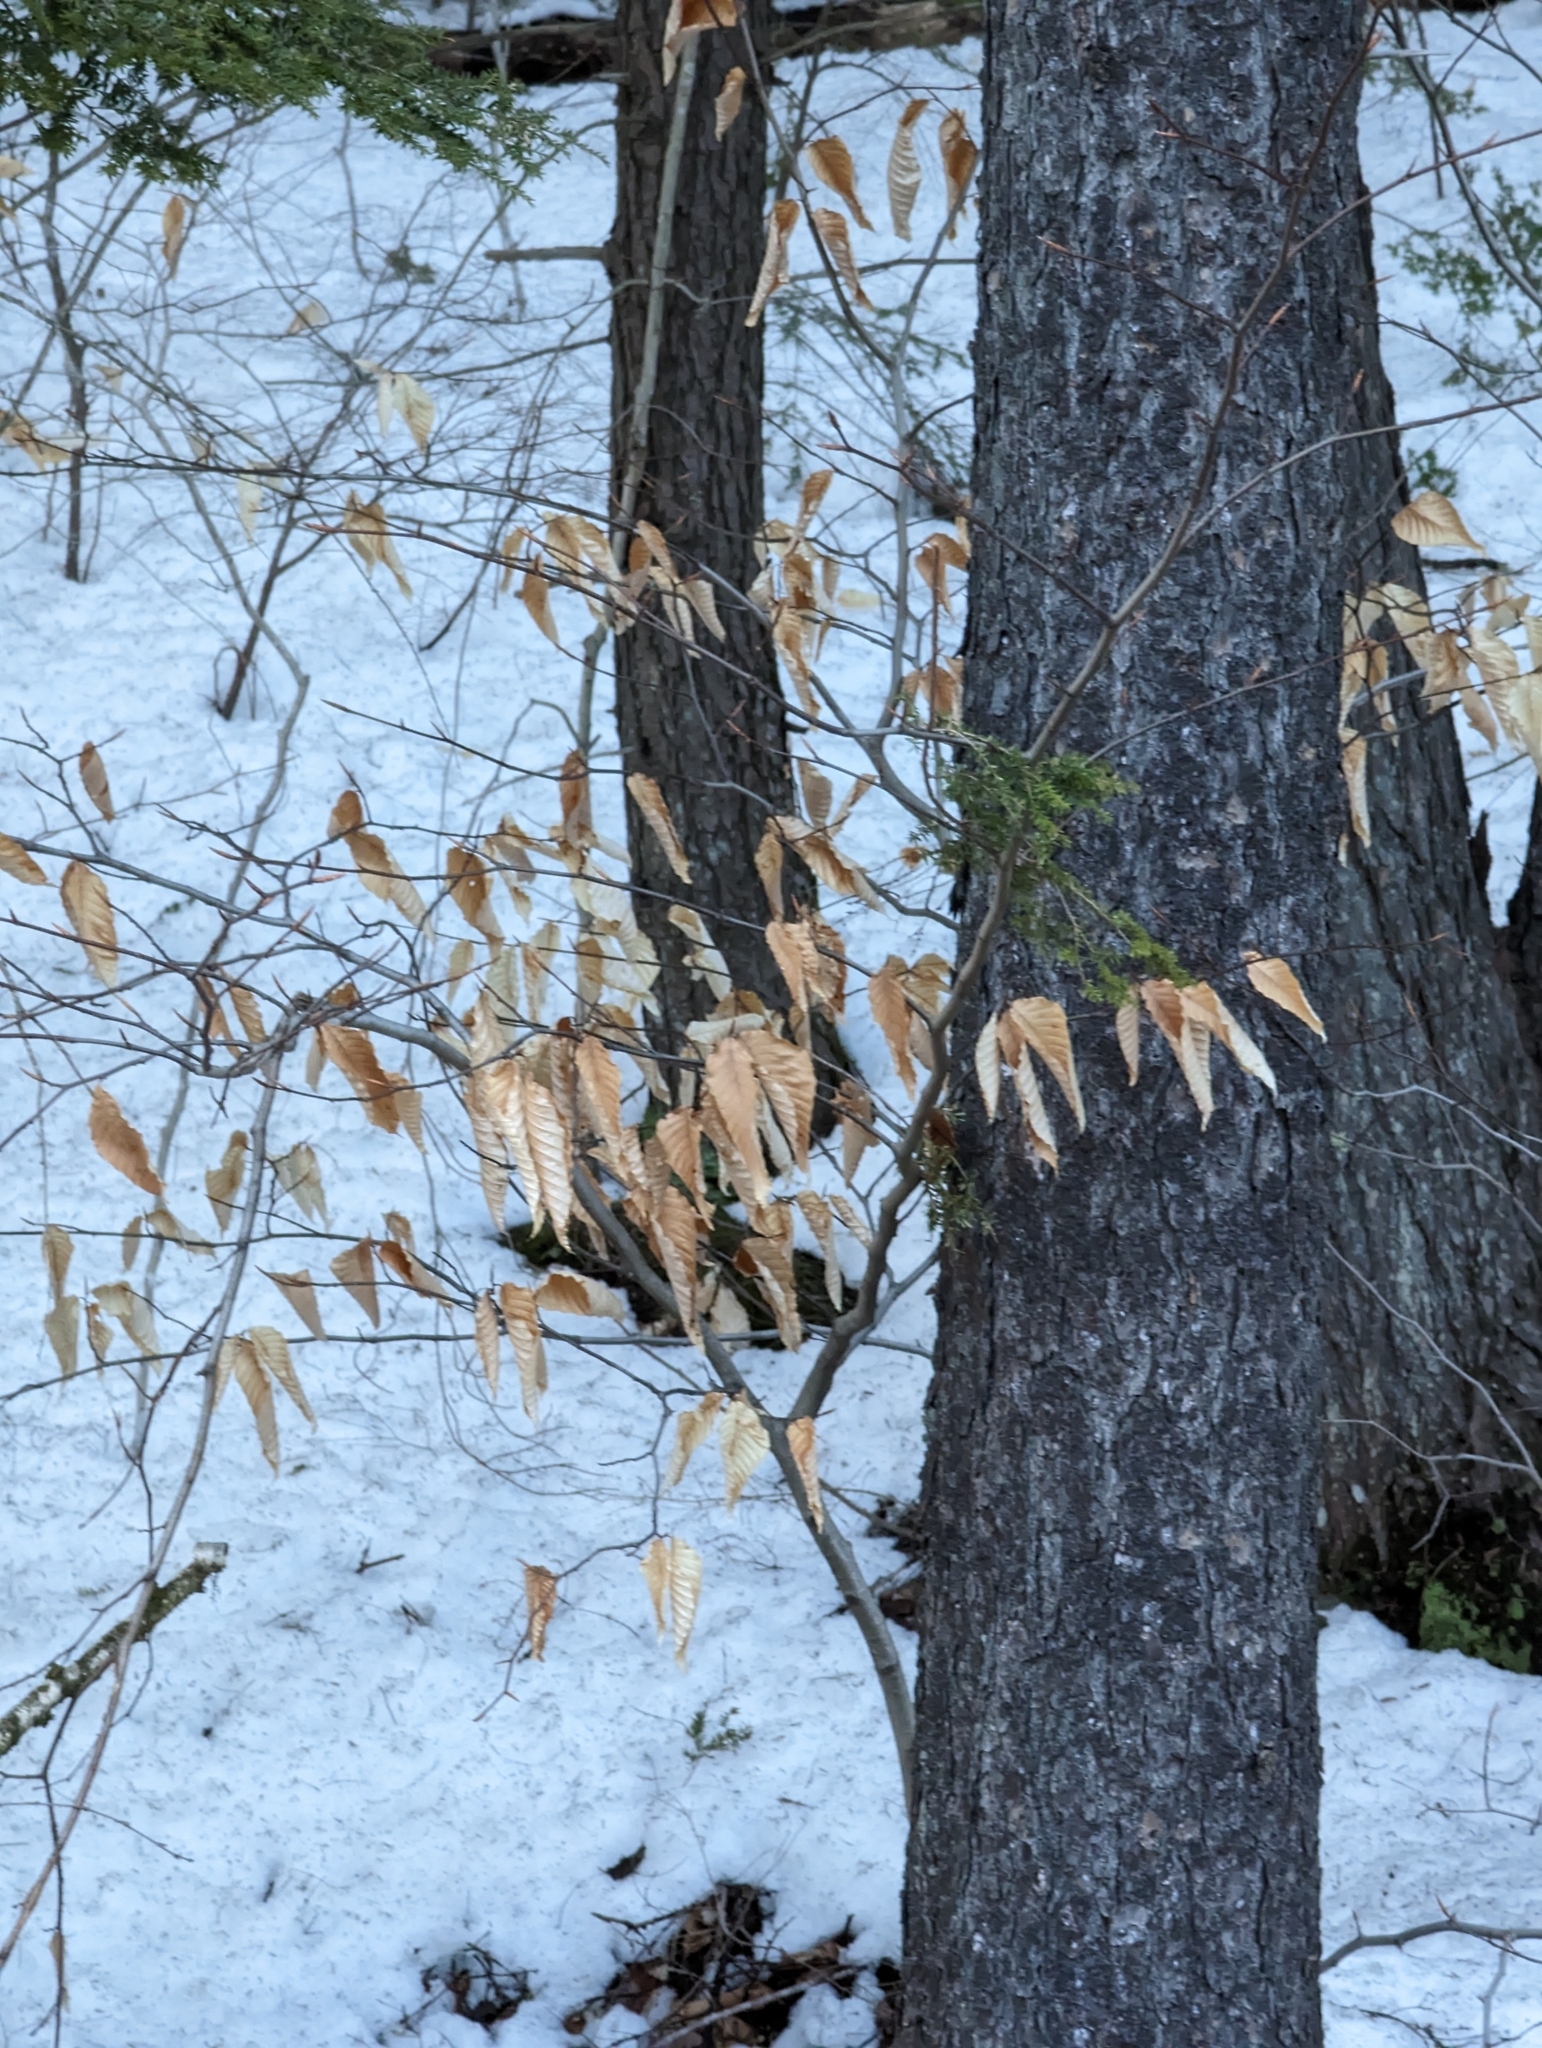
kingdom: Plantae
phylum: Tracheophyta
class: Magnoliopsida
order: Fagales
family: Fagaceae
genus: Fagus
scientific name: Fagus grandifolia
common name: American beech
